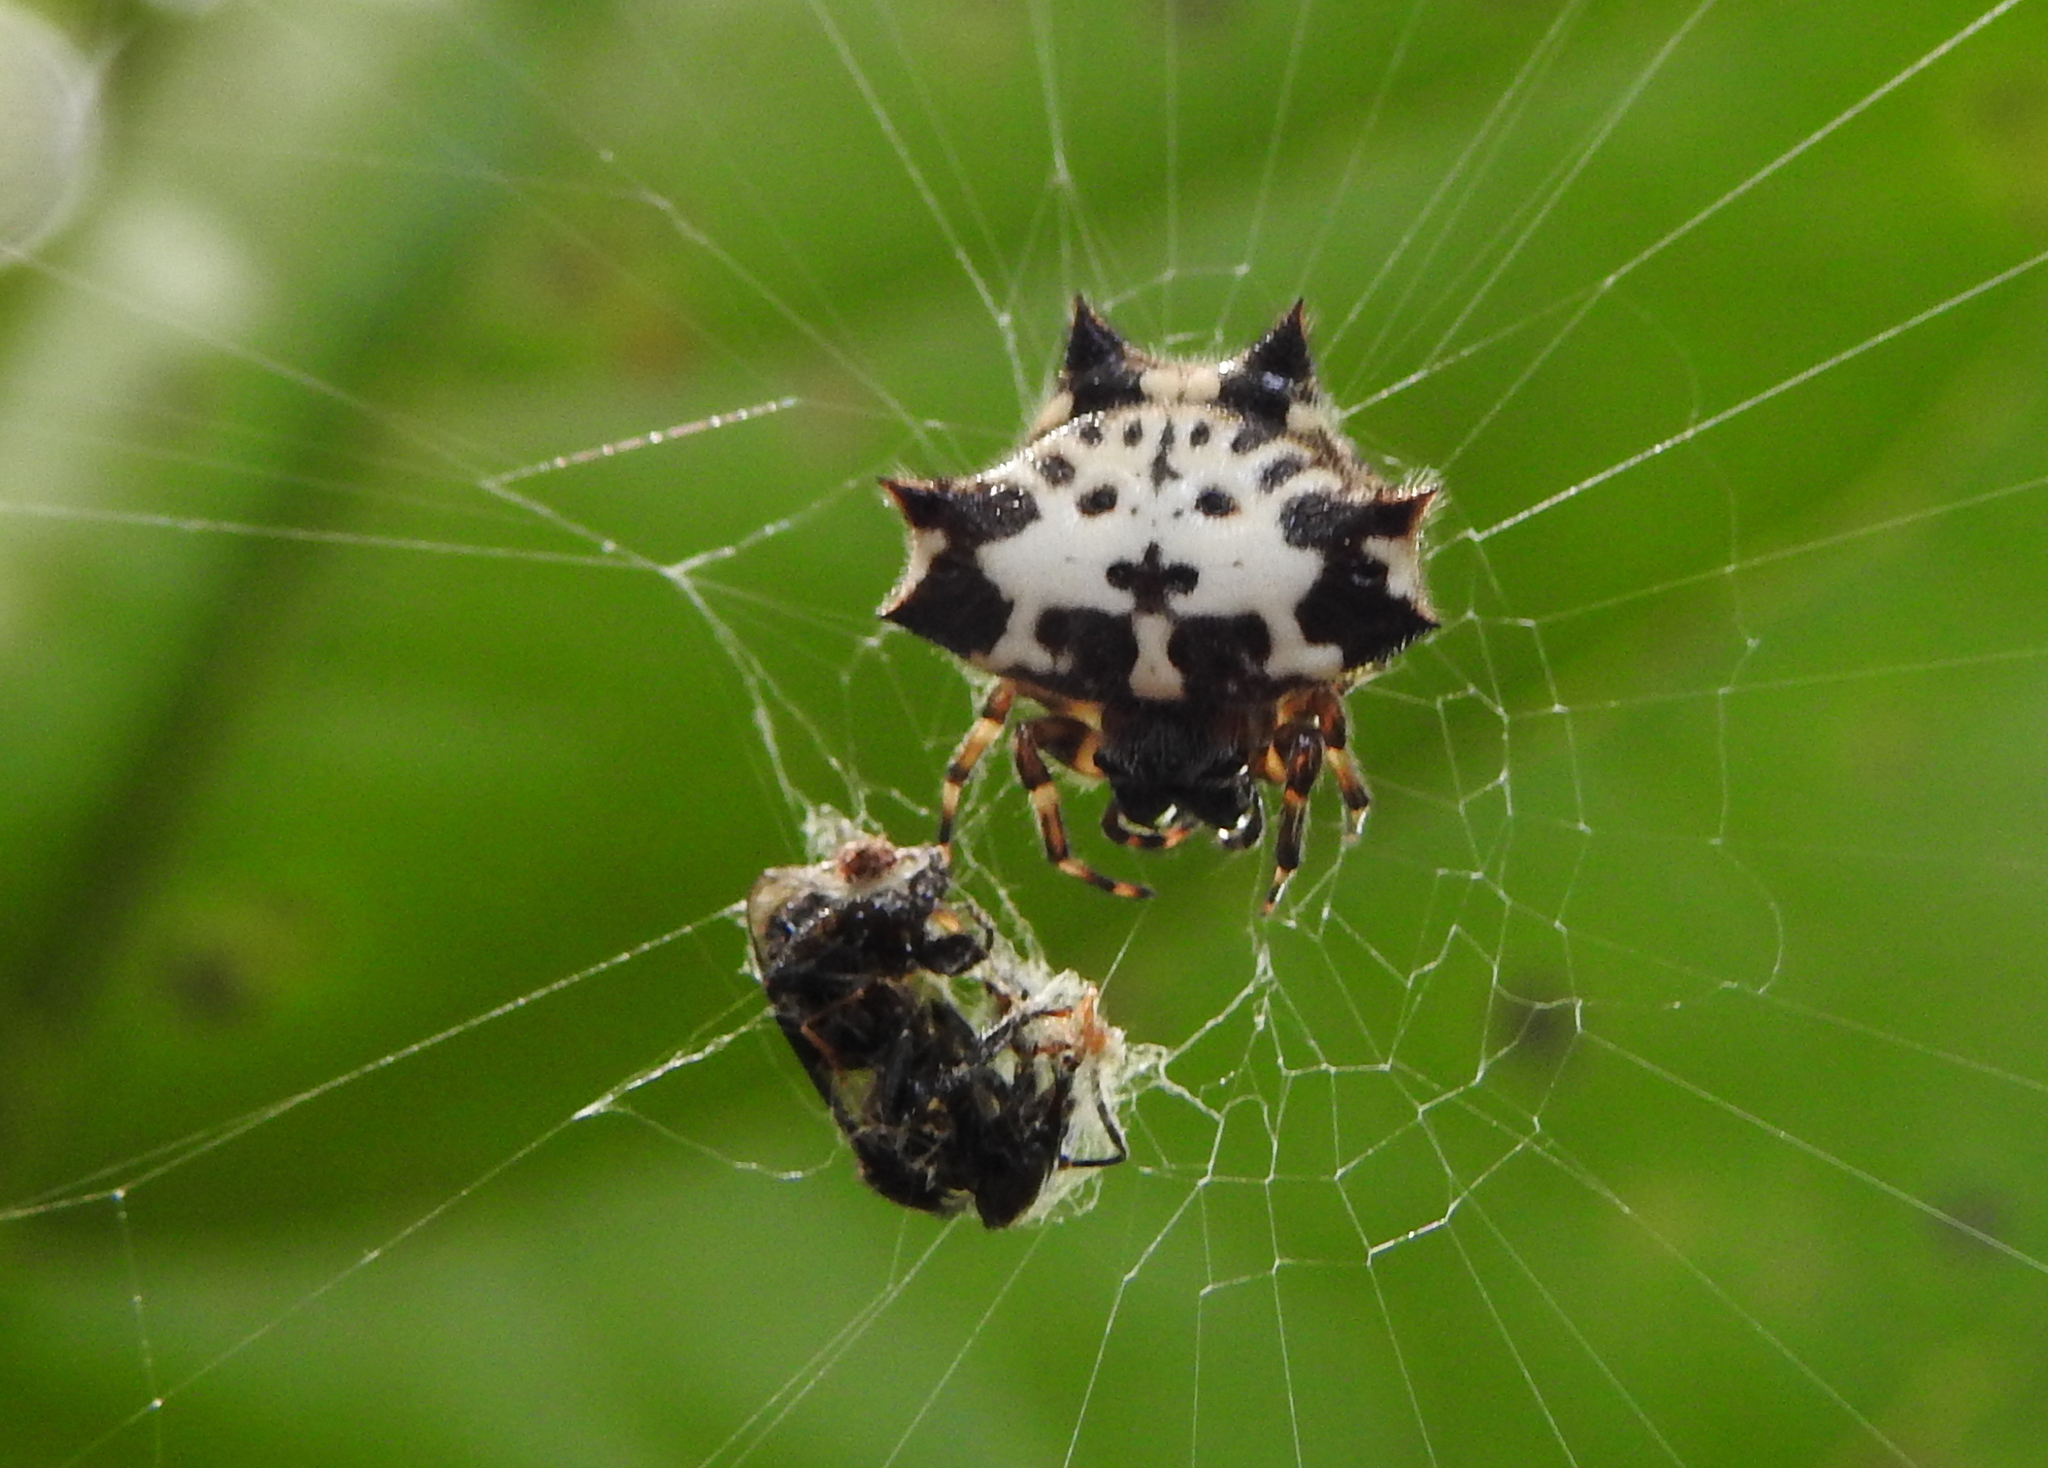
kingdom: Animalia
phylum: Arthropoda
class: Arachnida
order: Araneae
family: Araneidae
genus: Gasteracantha
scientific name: Gasteracantha kuhli
